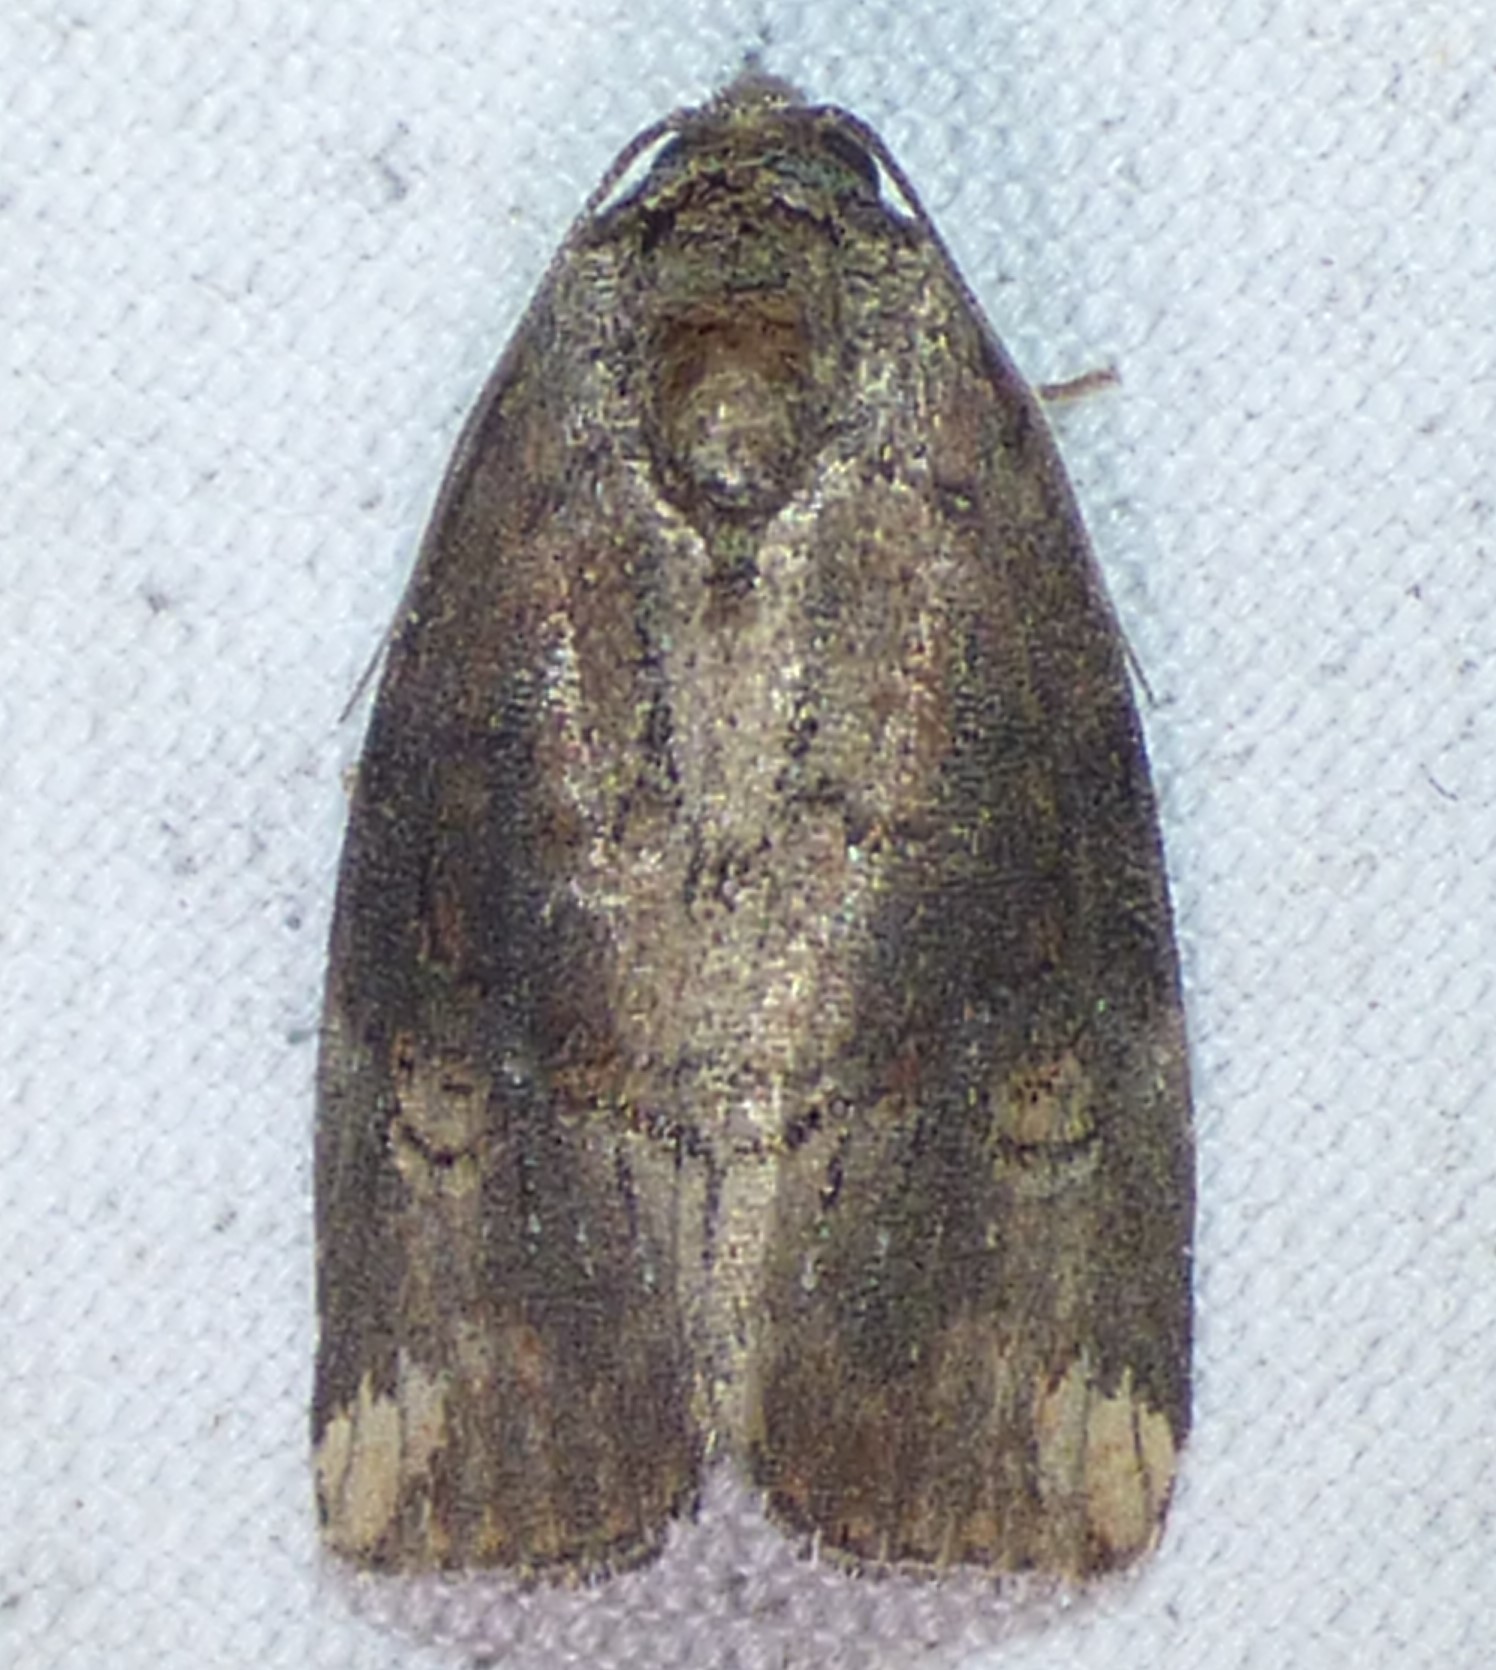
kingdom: Animalia
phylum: Arthropoda
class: Insecta
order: Lepidoptera
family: Noctuidae
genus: Elaphria
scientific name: Elaphria versicolor
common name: Fir harlequin
